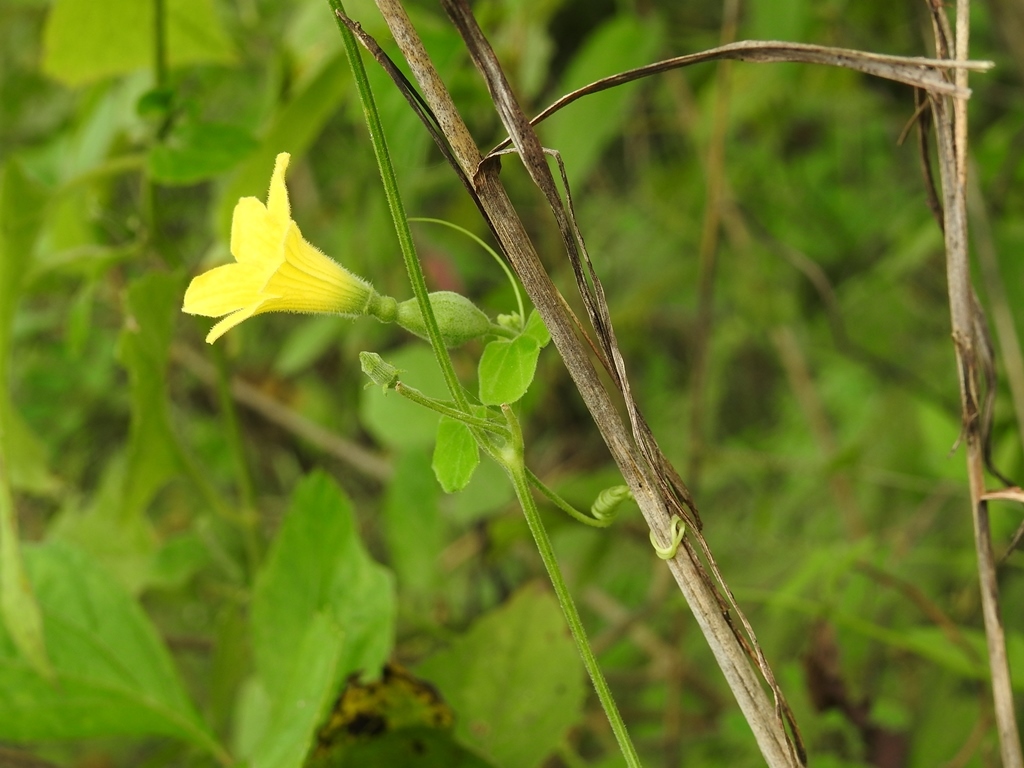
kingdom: Plantae
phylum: Tracheophyta
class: Magnoliopsida
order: Cucurbitales
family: Cucurbitaceae
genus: Schizocarpum
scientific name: Schizocarpum longisepalum
